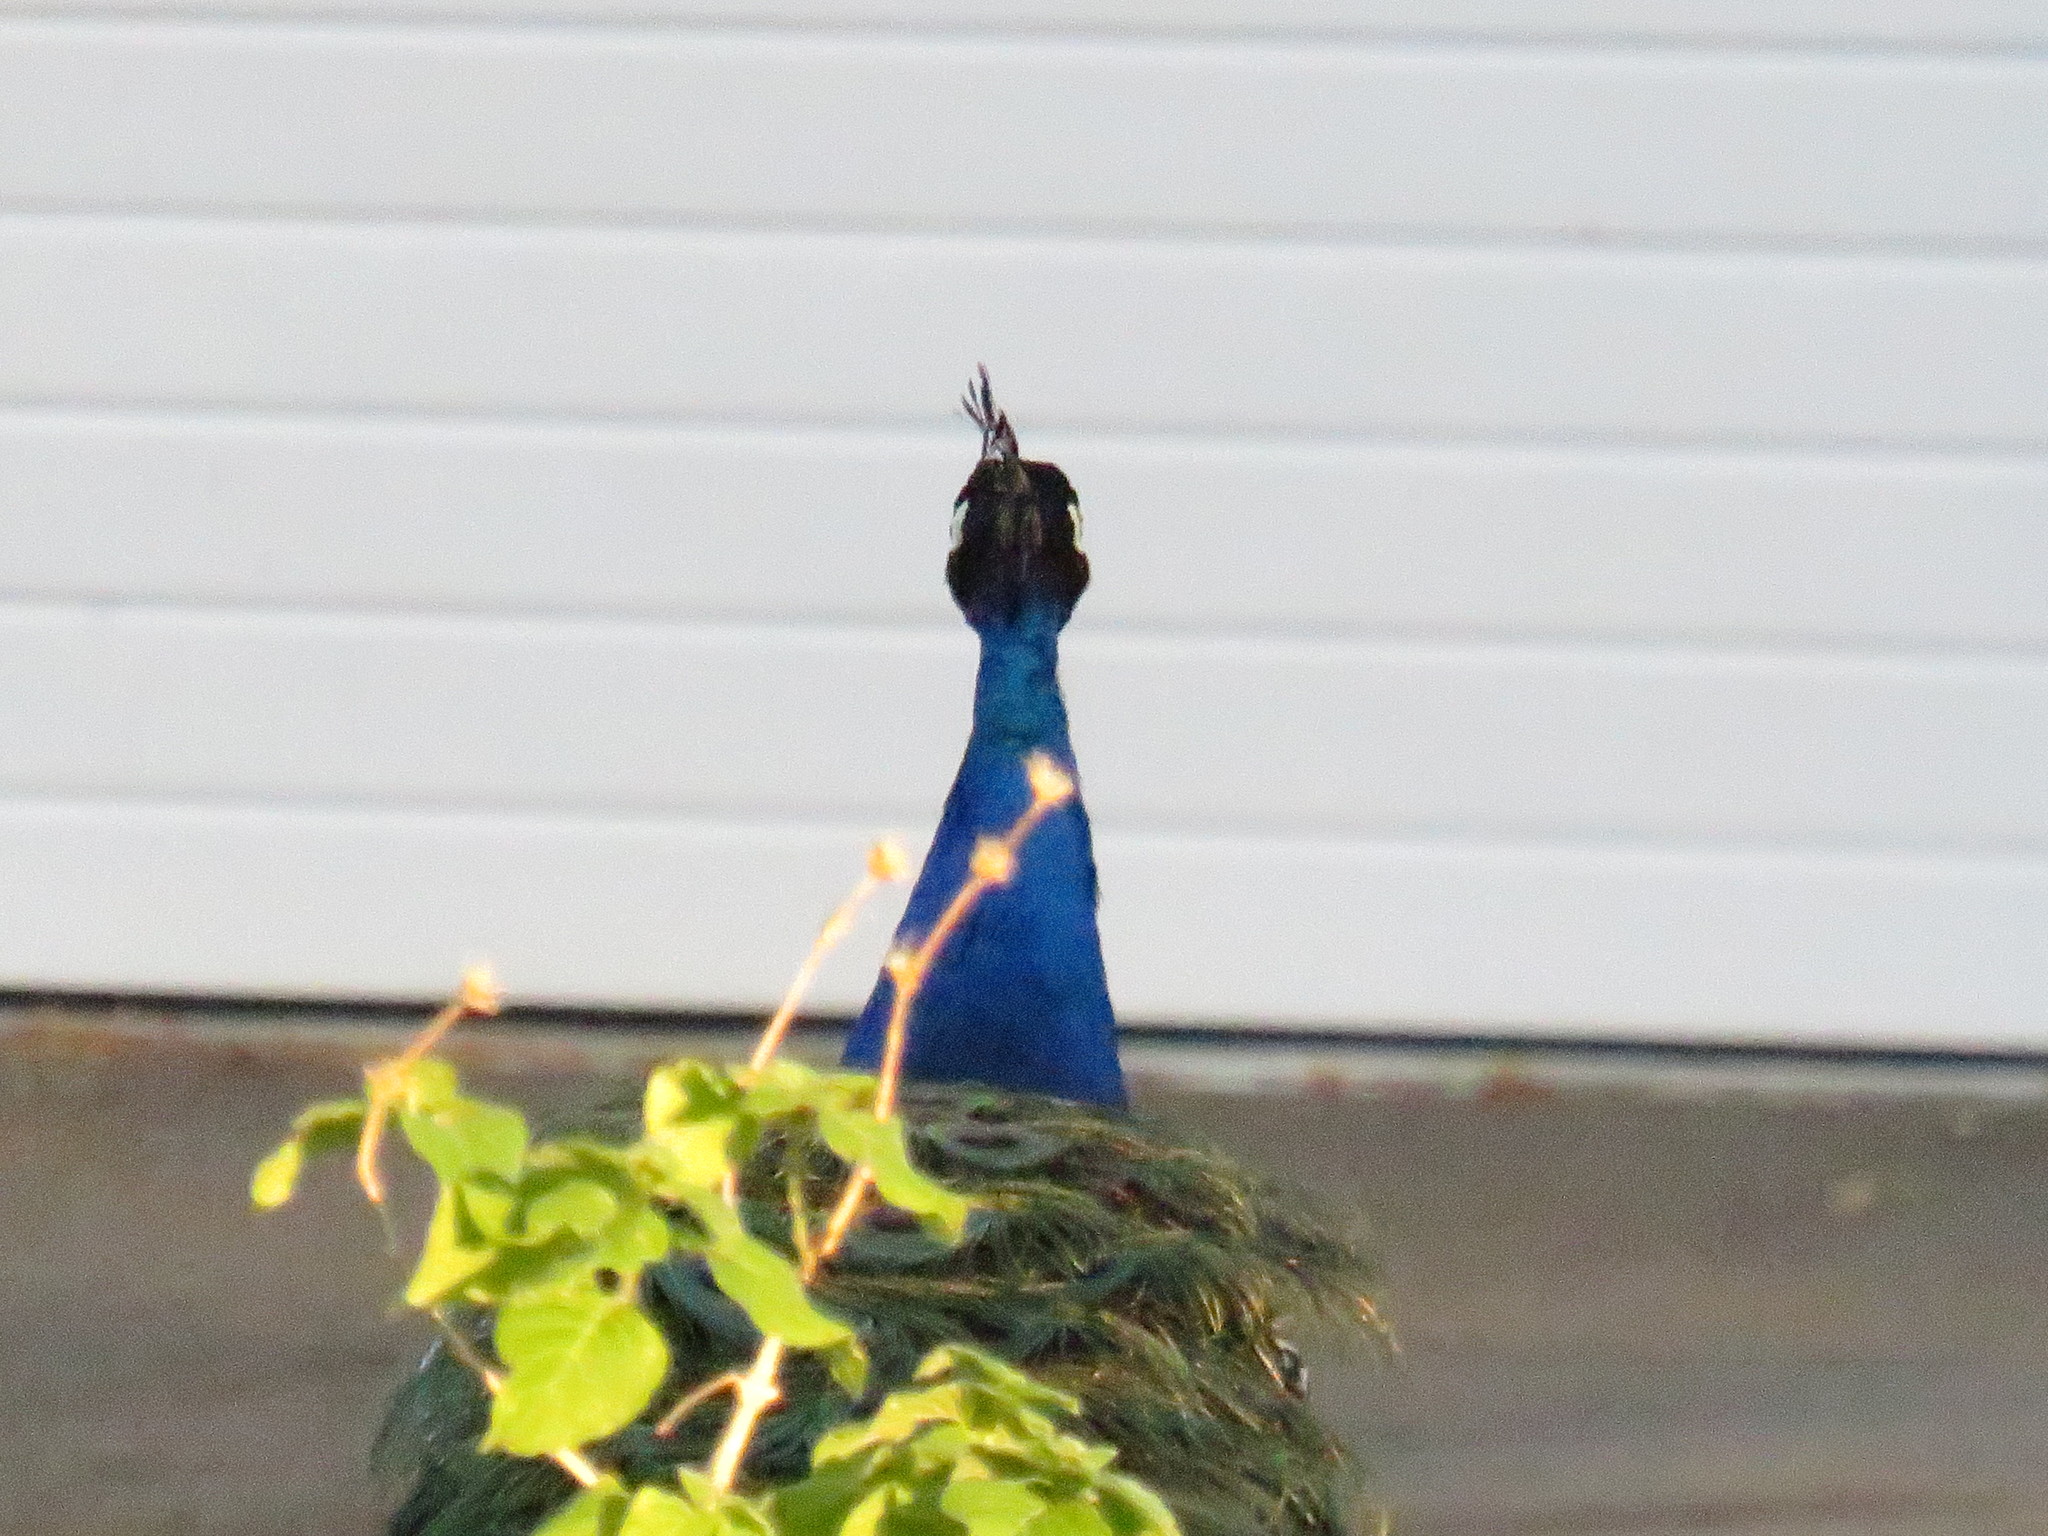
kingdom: Animalia
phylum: Chordata
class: Aves
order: Galliformes
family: Phasianidae
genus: Pavo
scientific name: Pavo cristatus
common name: Indian peafowl
